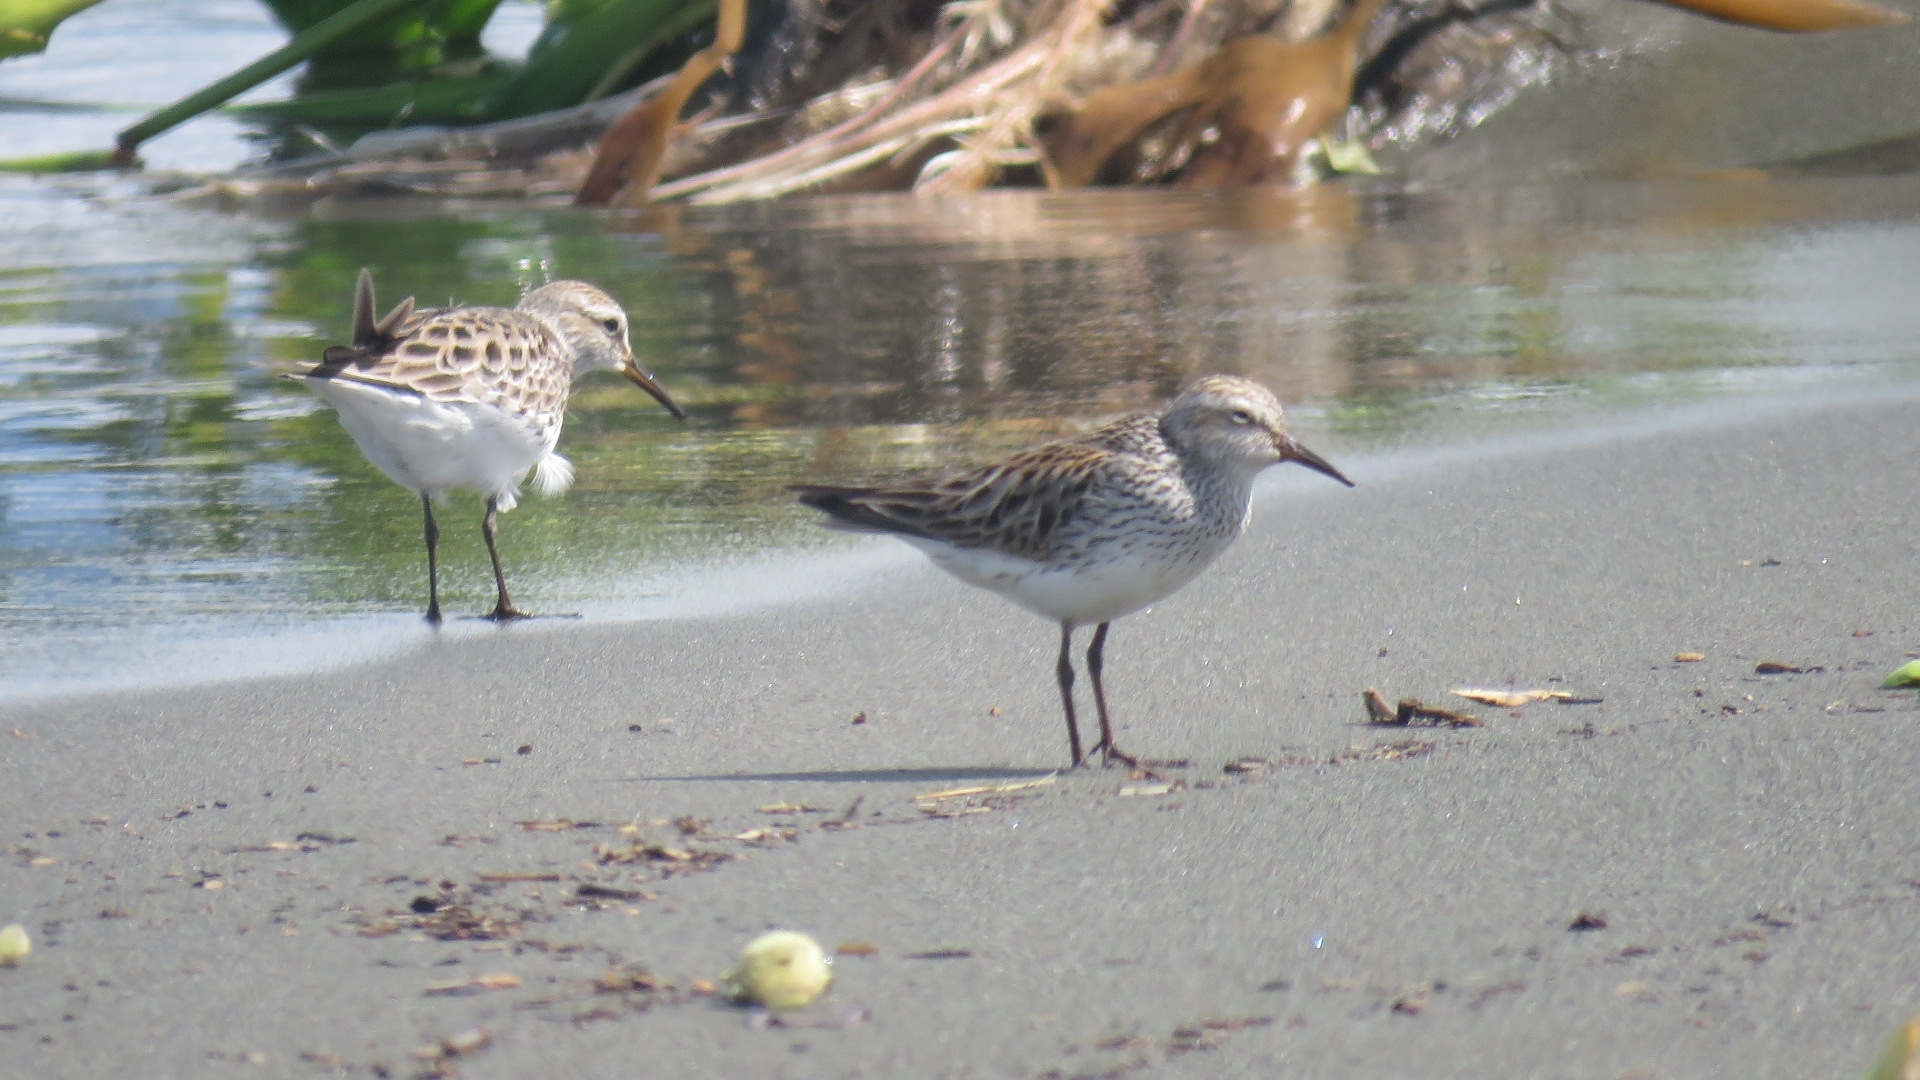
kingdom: Animalia
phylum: Chordata
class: Aves
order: Charadriiformes
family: Scolopacidae
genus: Calidris
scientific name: Calidris fuscicollis
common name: White-rumped sandpiper
